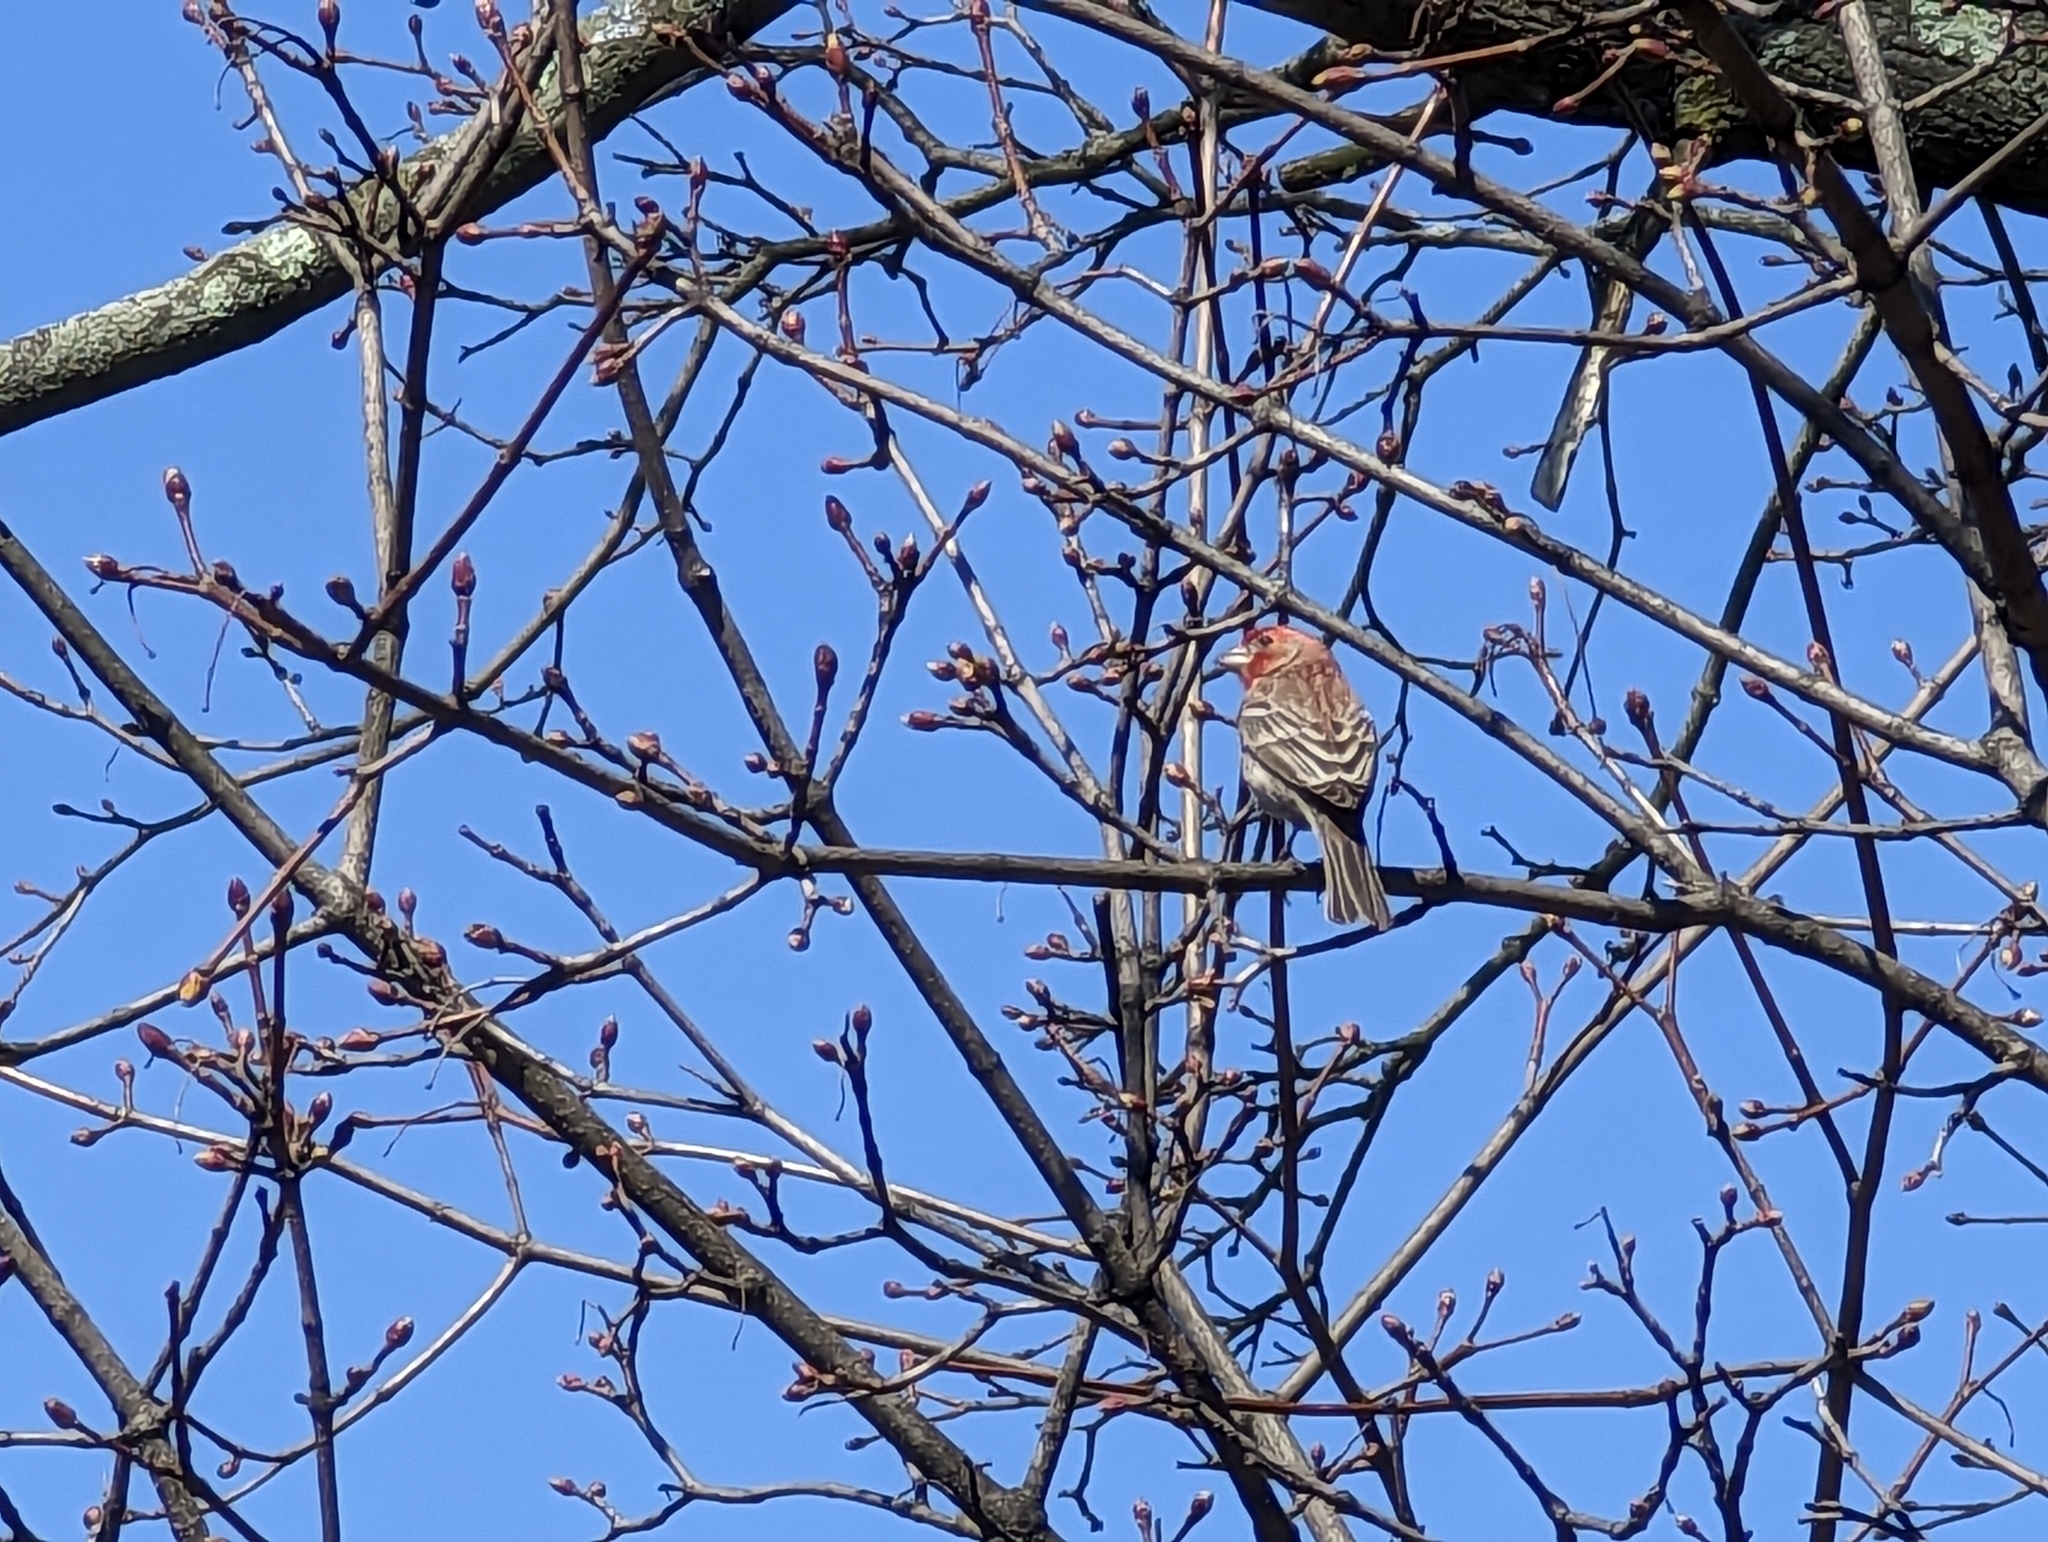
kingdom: Animalia
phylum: Chordata
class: Aves
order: Passeriformes
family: Fringillidae
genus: Haemorhous
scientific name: Haemorhous mexicanus
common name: House finch
